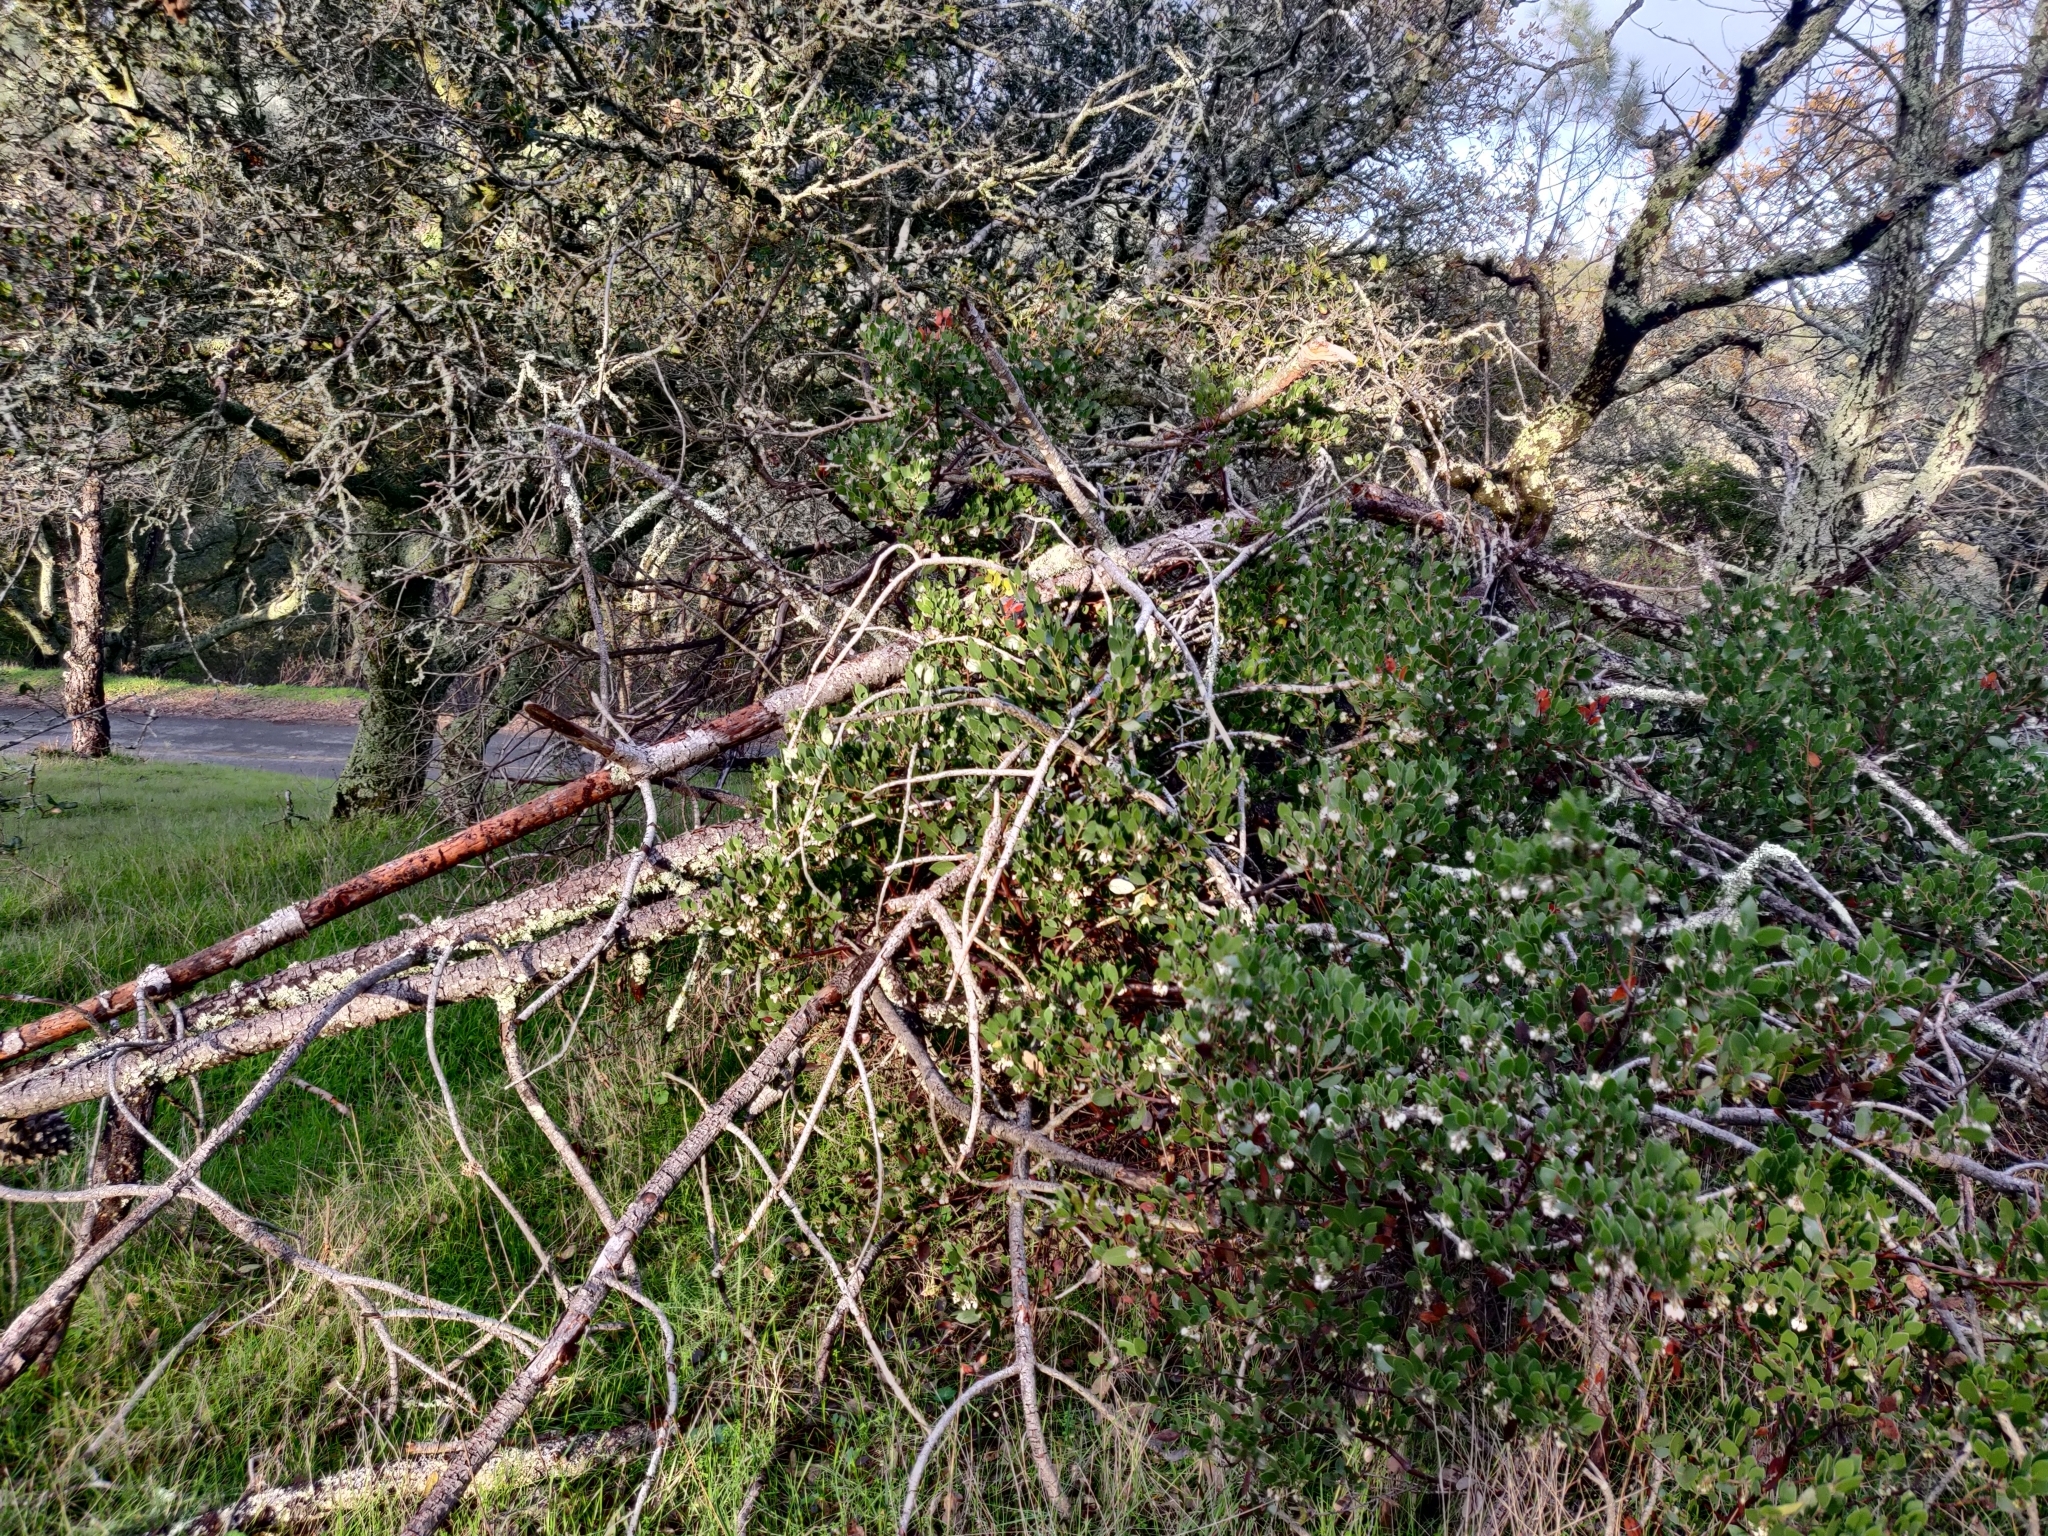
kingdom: Plantae
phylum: Tracheophyta
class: Magnoliopsida
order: Ericales
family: Ericaceae
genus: Arctostaphylos
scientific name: Arctostaphylos manzanita
